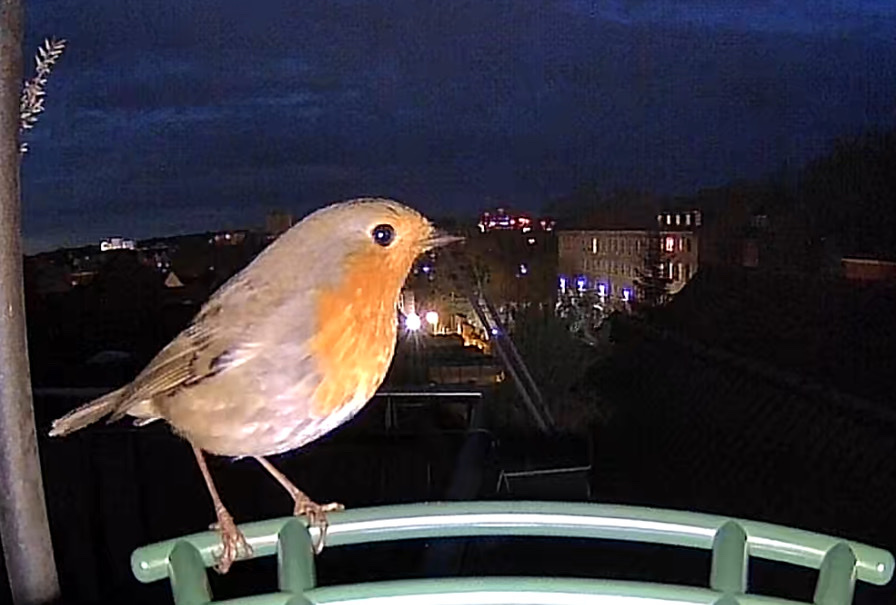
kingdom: Animalia
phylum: Chordata
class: Aves
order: Passeriformes
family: Muscicapidae
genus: Erithacus
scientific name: Erithacus rubecula
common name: European robin
